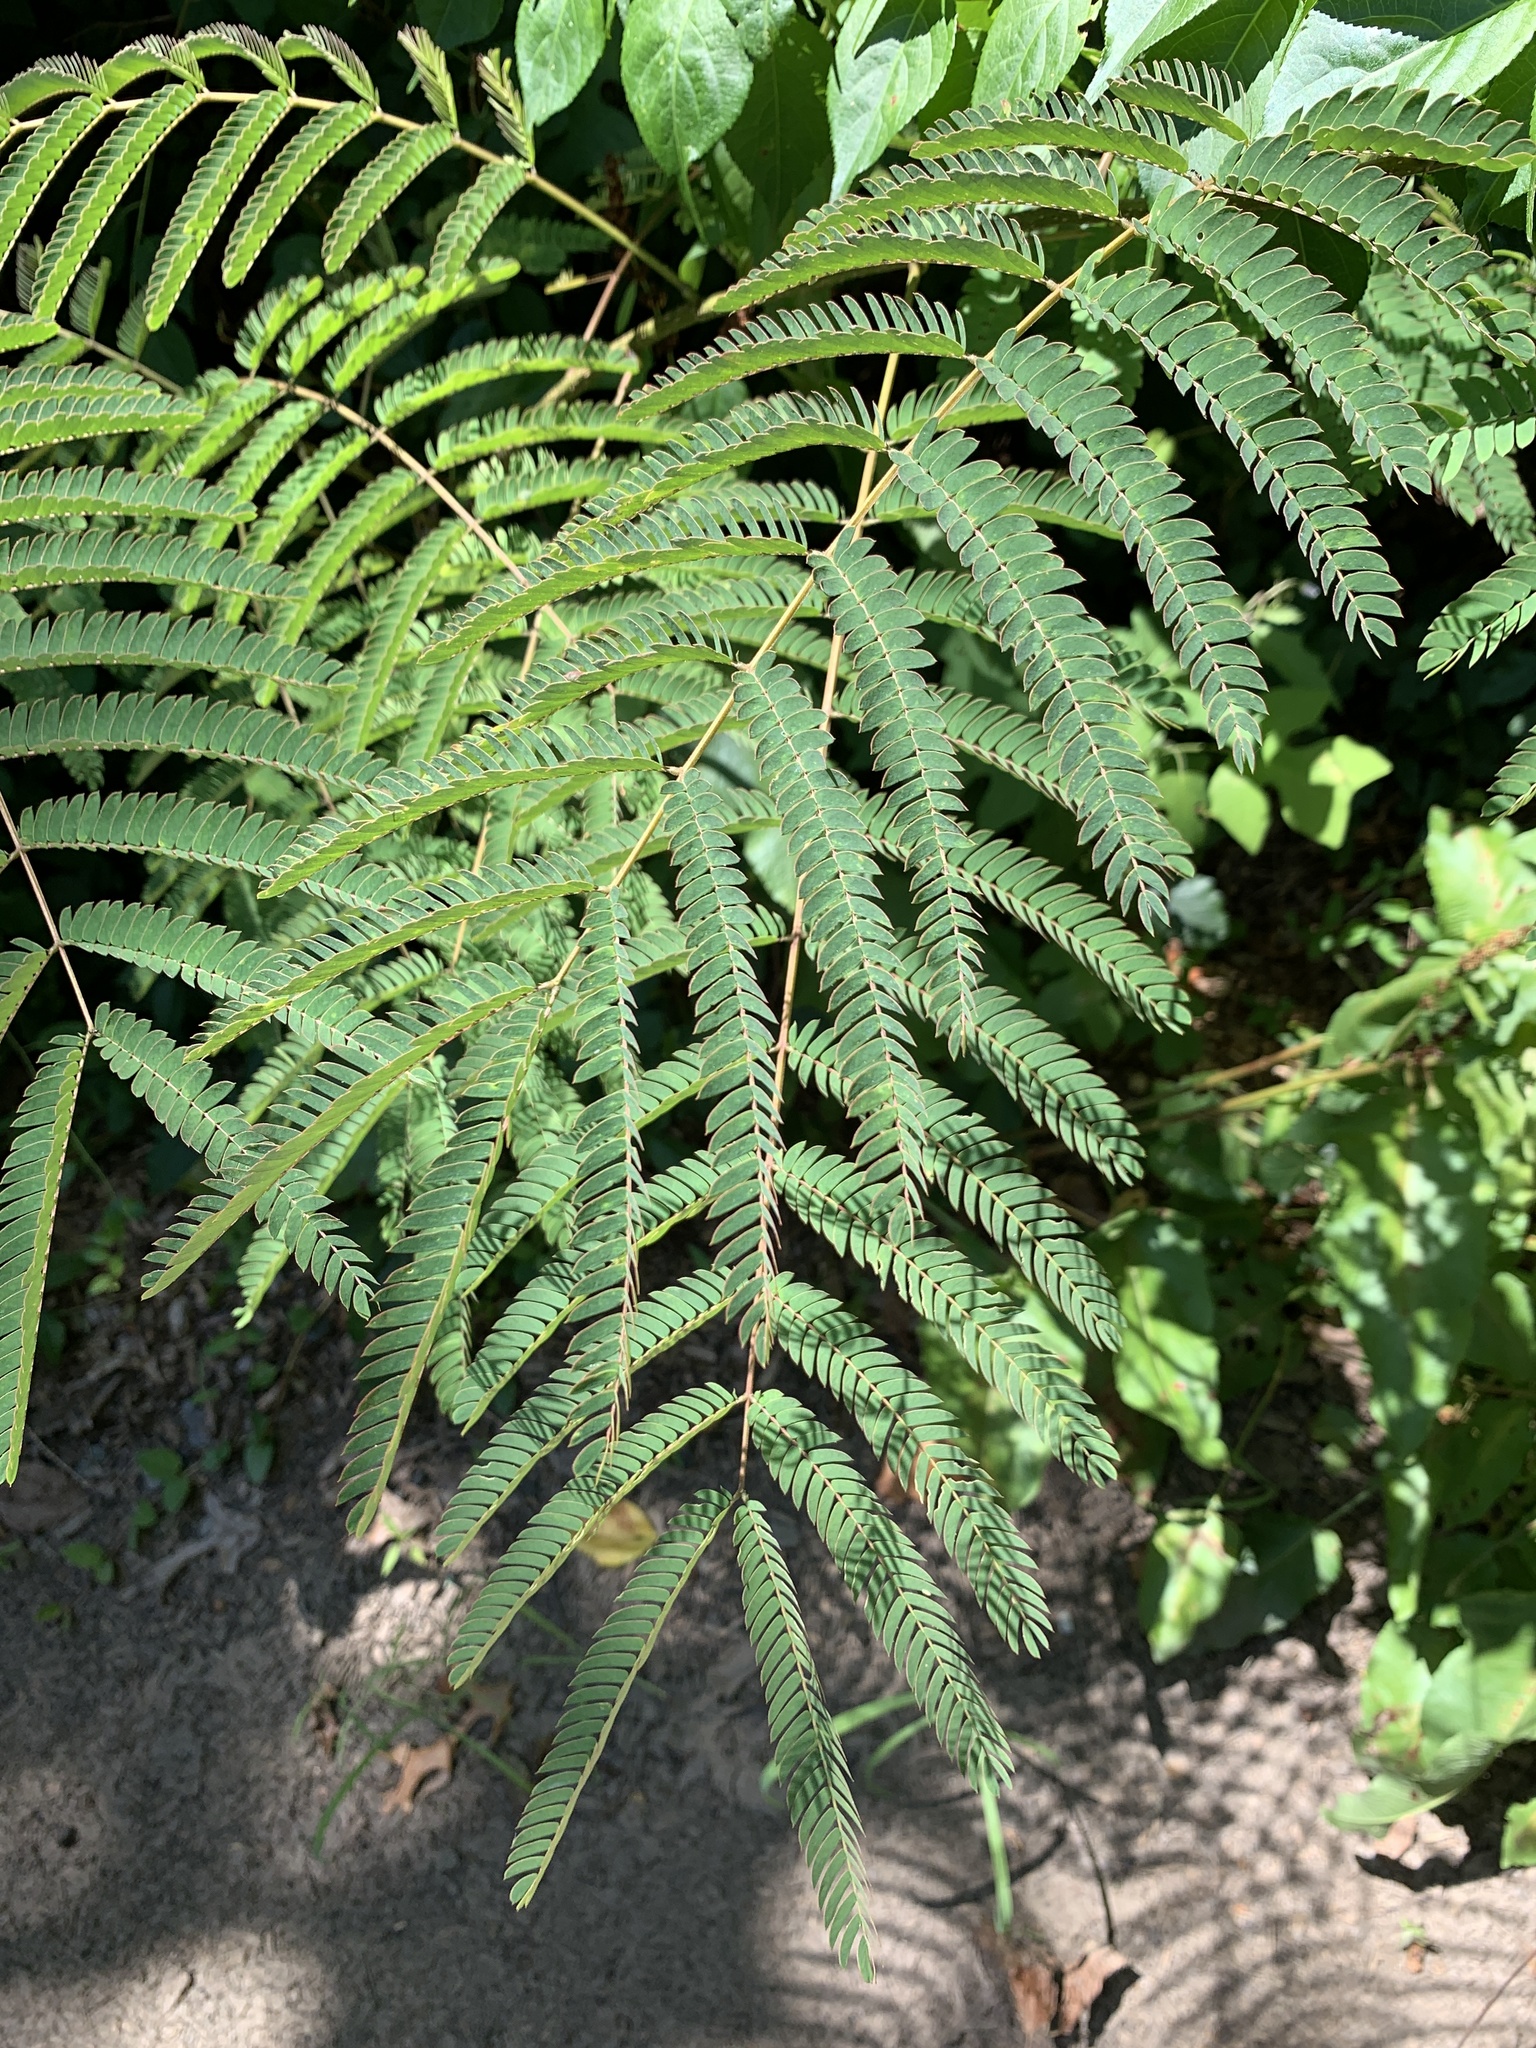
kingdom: Plantae
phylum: Tracheophyta
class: Magnoliopsida
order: Fabales
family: Fabaceae
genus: Albizia
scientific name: Albizia julibrissin
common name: Silktree
